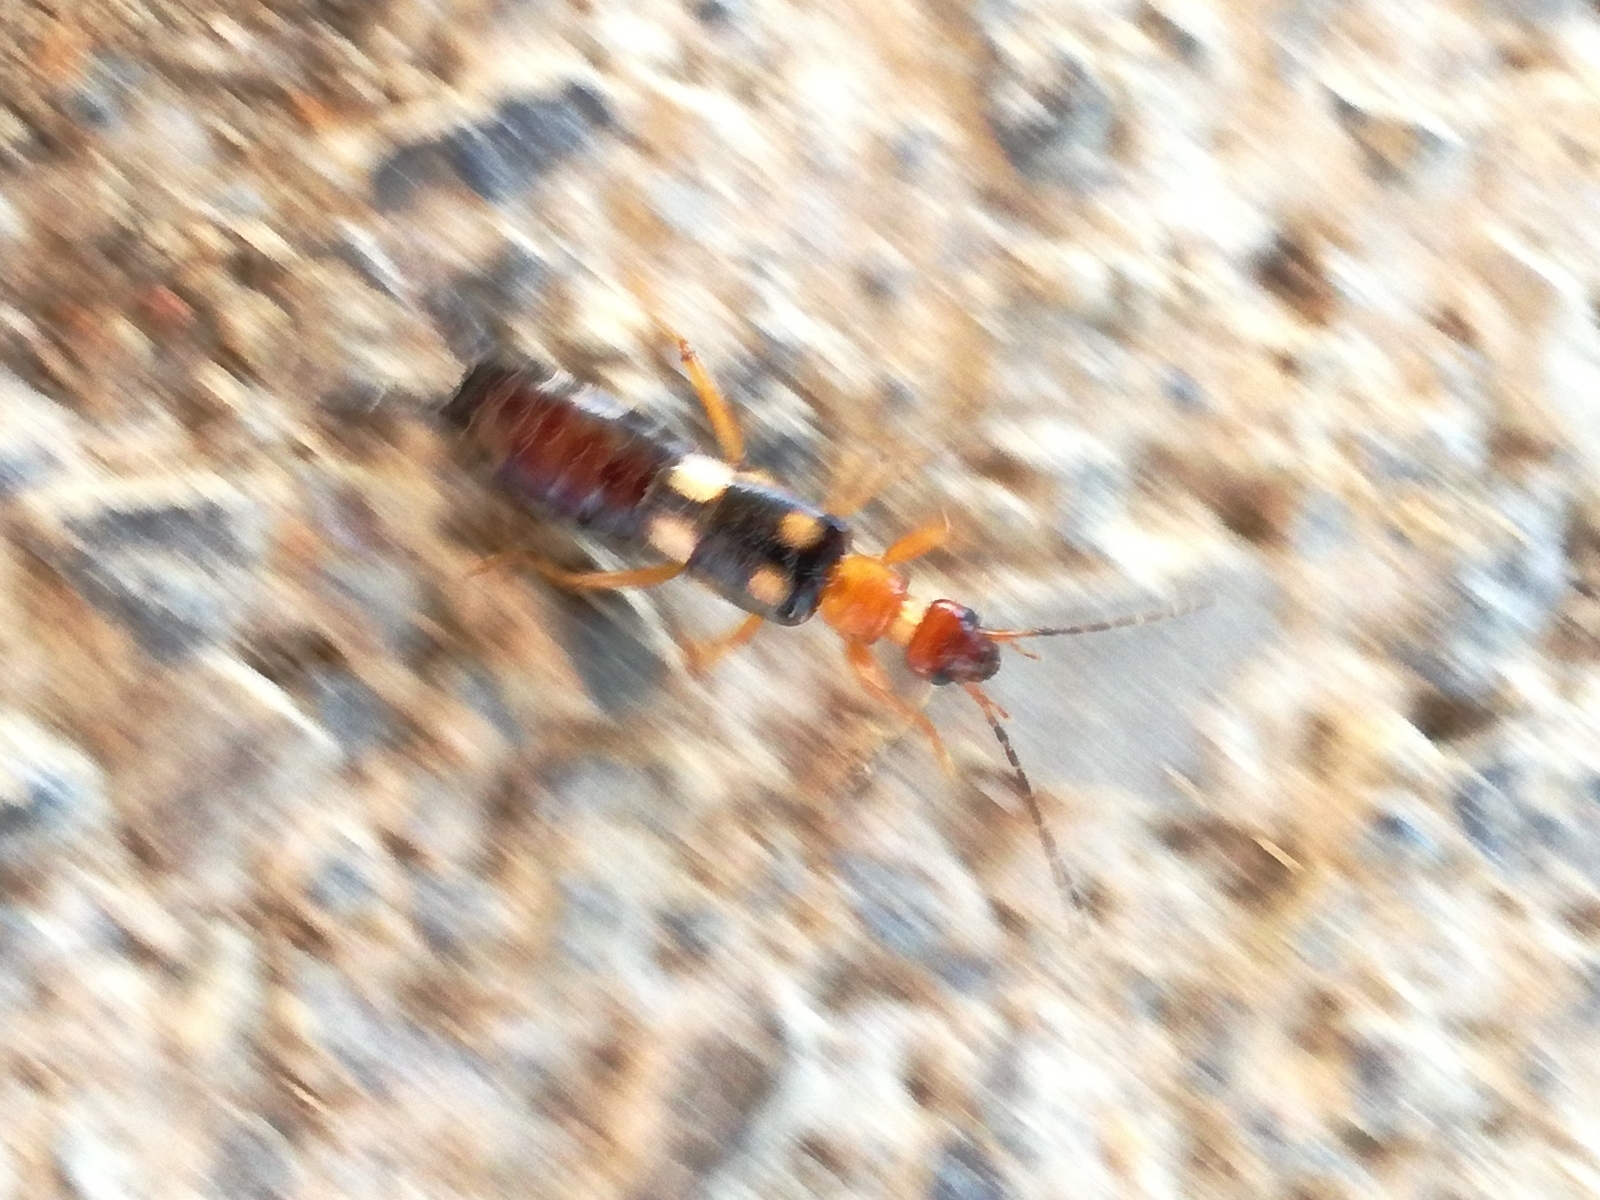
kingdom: Animalia
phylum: Arthropoda
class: Insecta
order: Dermaptera
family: Forficulidae
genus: Forficula
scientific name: Forficula smyrnensis
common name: Smyrna earwig
